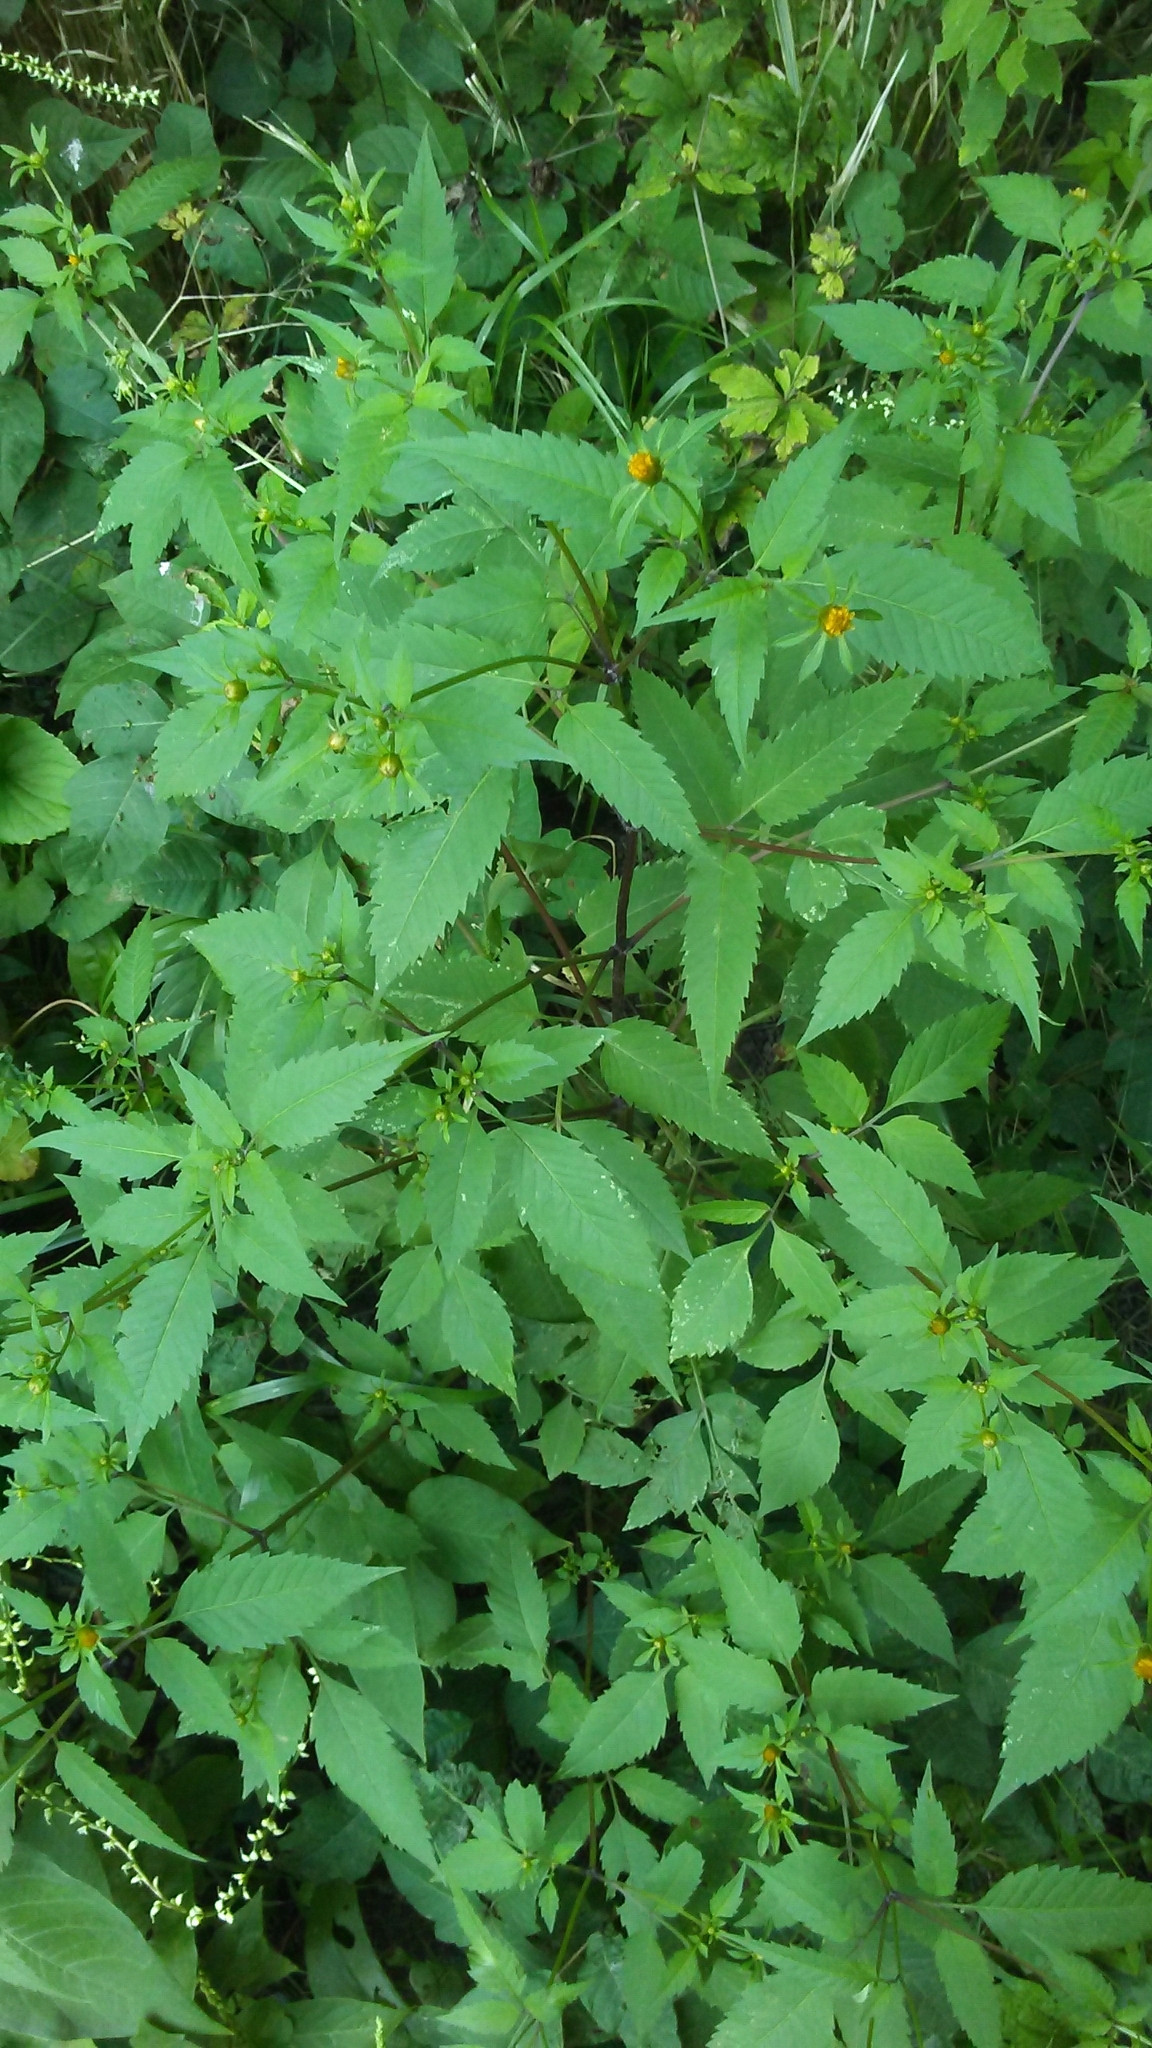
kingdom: Plantae
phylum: Tracheophyta
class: Magnoliopsida
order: Asterales
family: Asteraceae
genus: Bidens
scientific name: Bidens frondosa
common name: Beggarticks
